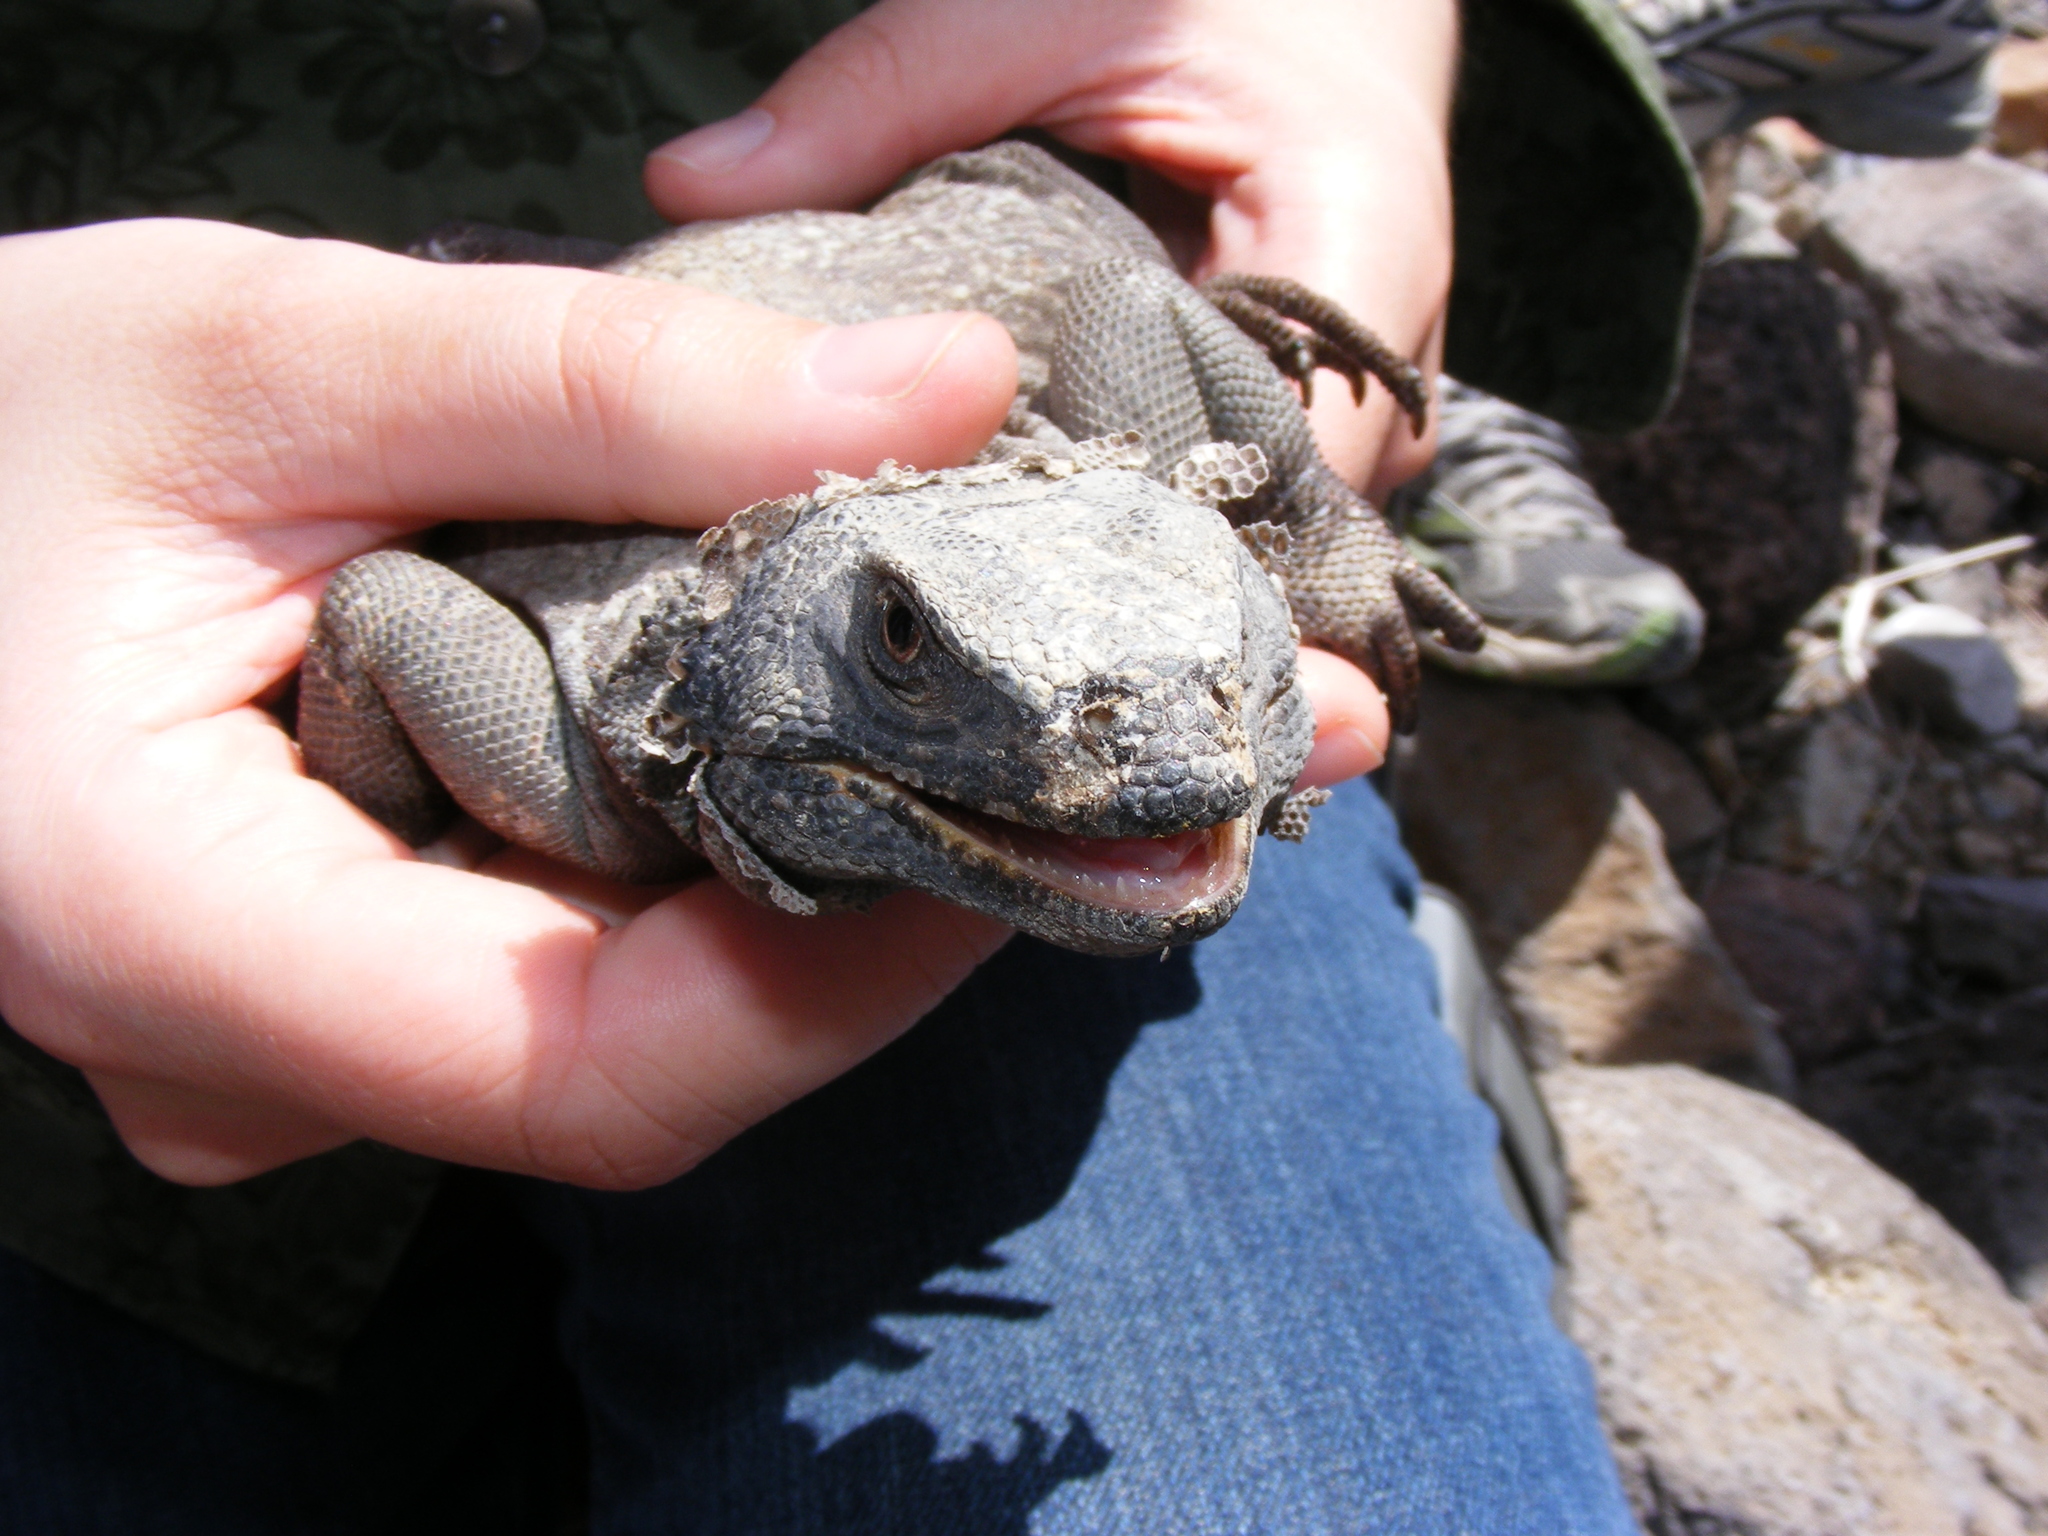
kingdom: Animalia
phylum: Chordata
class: Squamata
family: Iguanidae
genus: Sauromalus
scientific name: Sauromalus ater
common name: Northern chuckwalla
